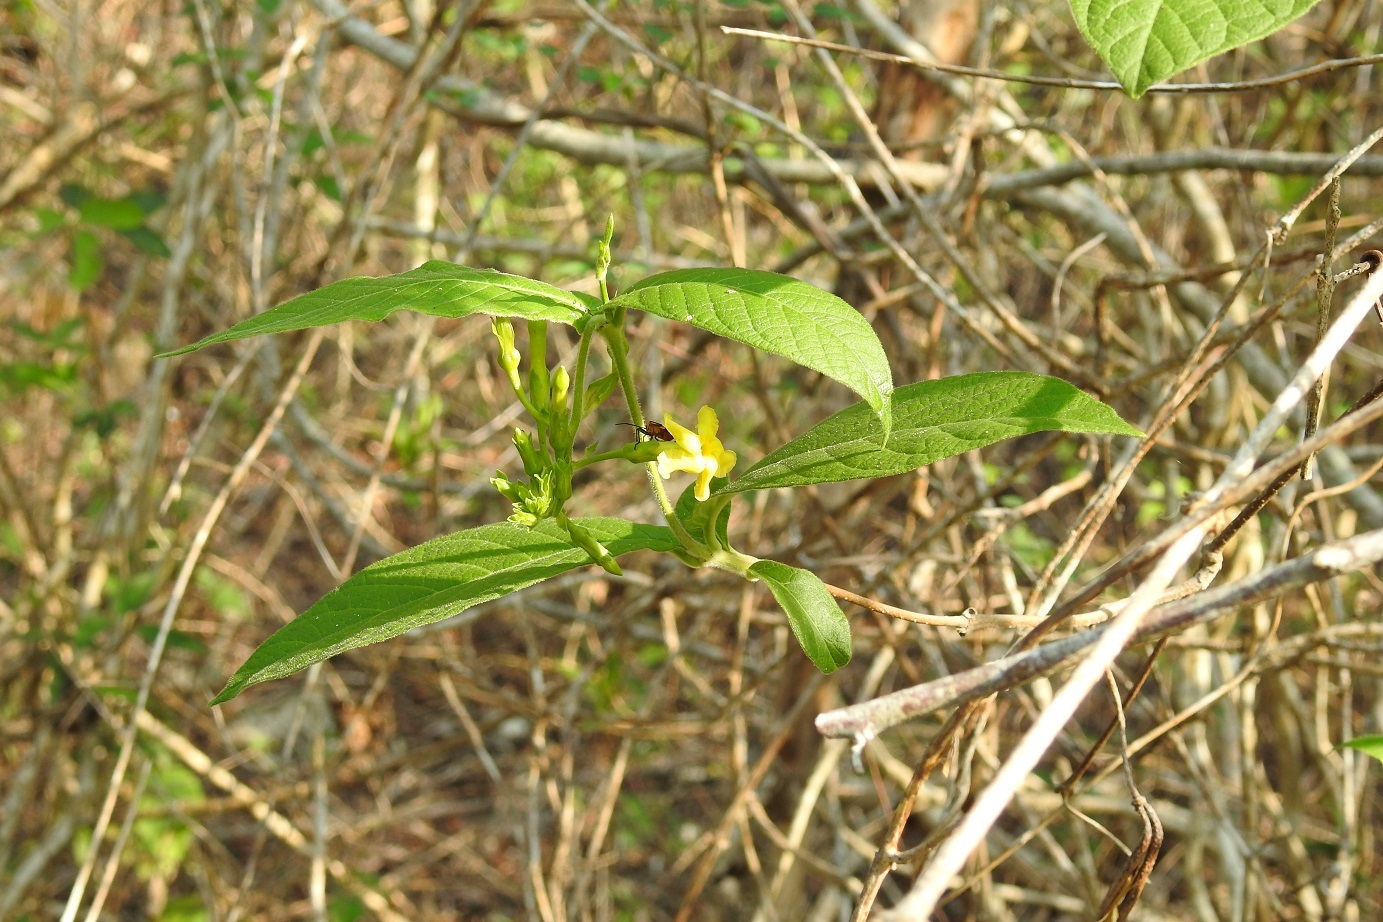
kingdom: Plantae
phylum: Tracheophyta
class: Magnoliopsida
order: Gentianales
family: Apocynaceae
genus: Mandevilla
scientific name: Mandevilla subsessilis
